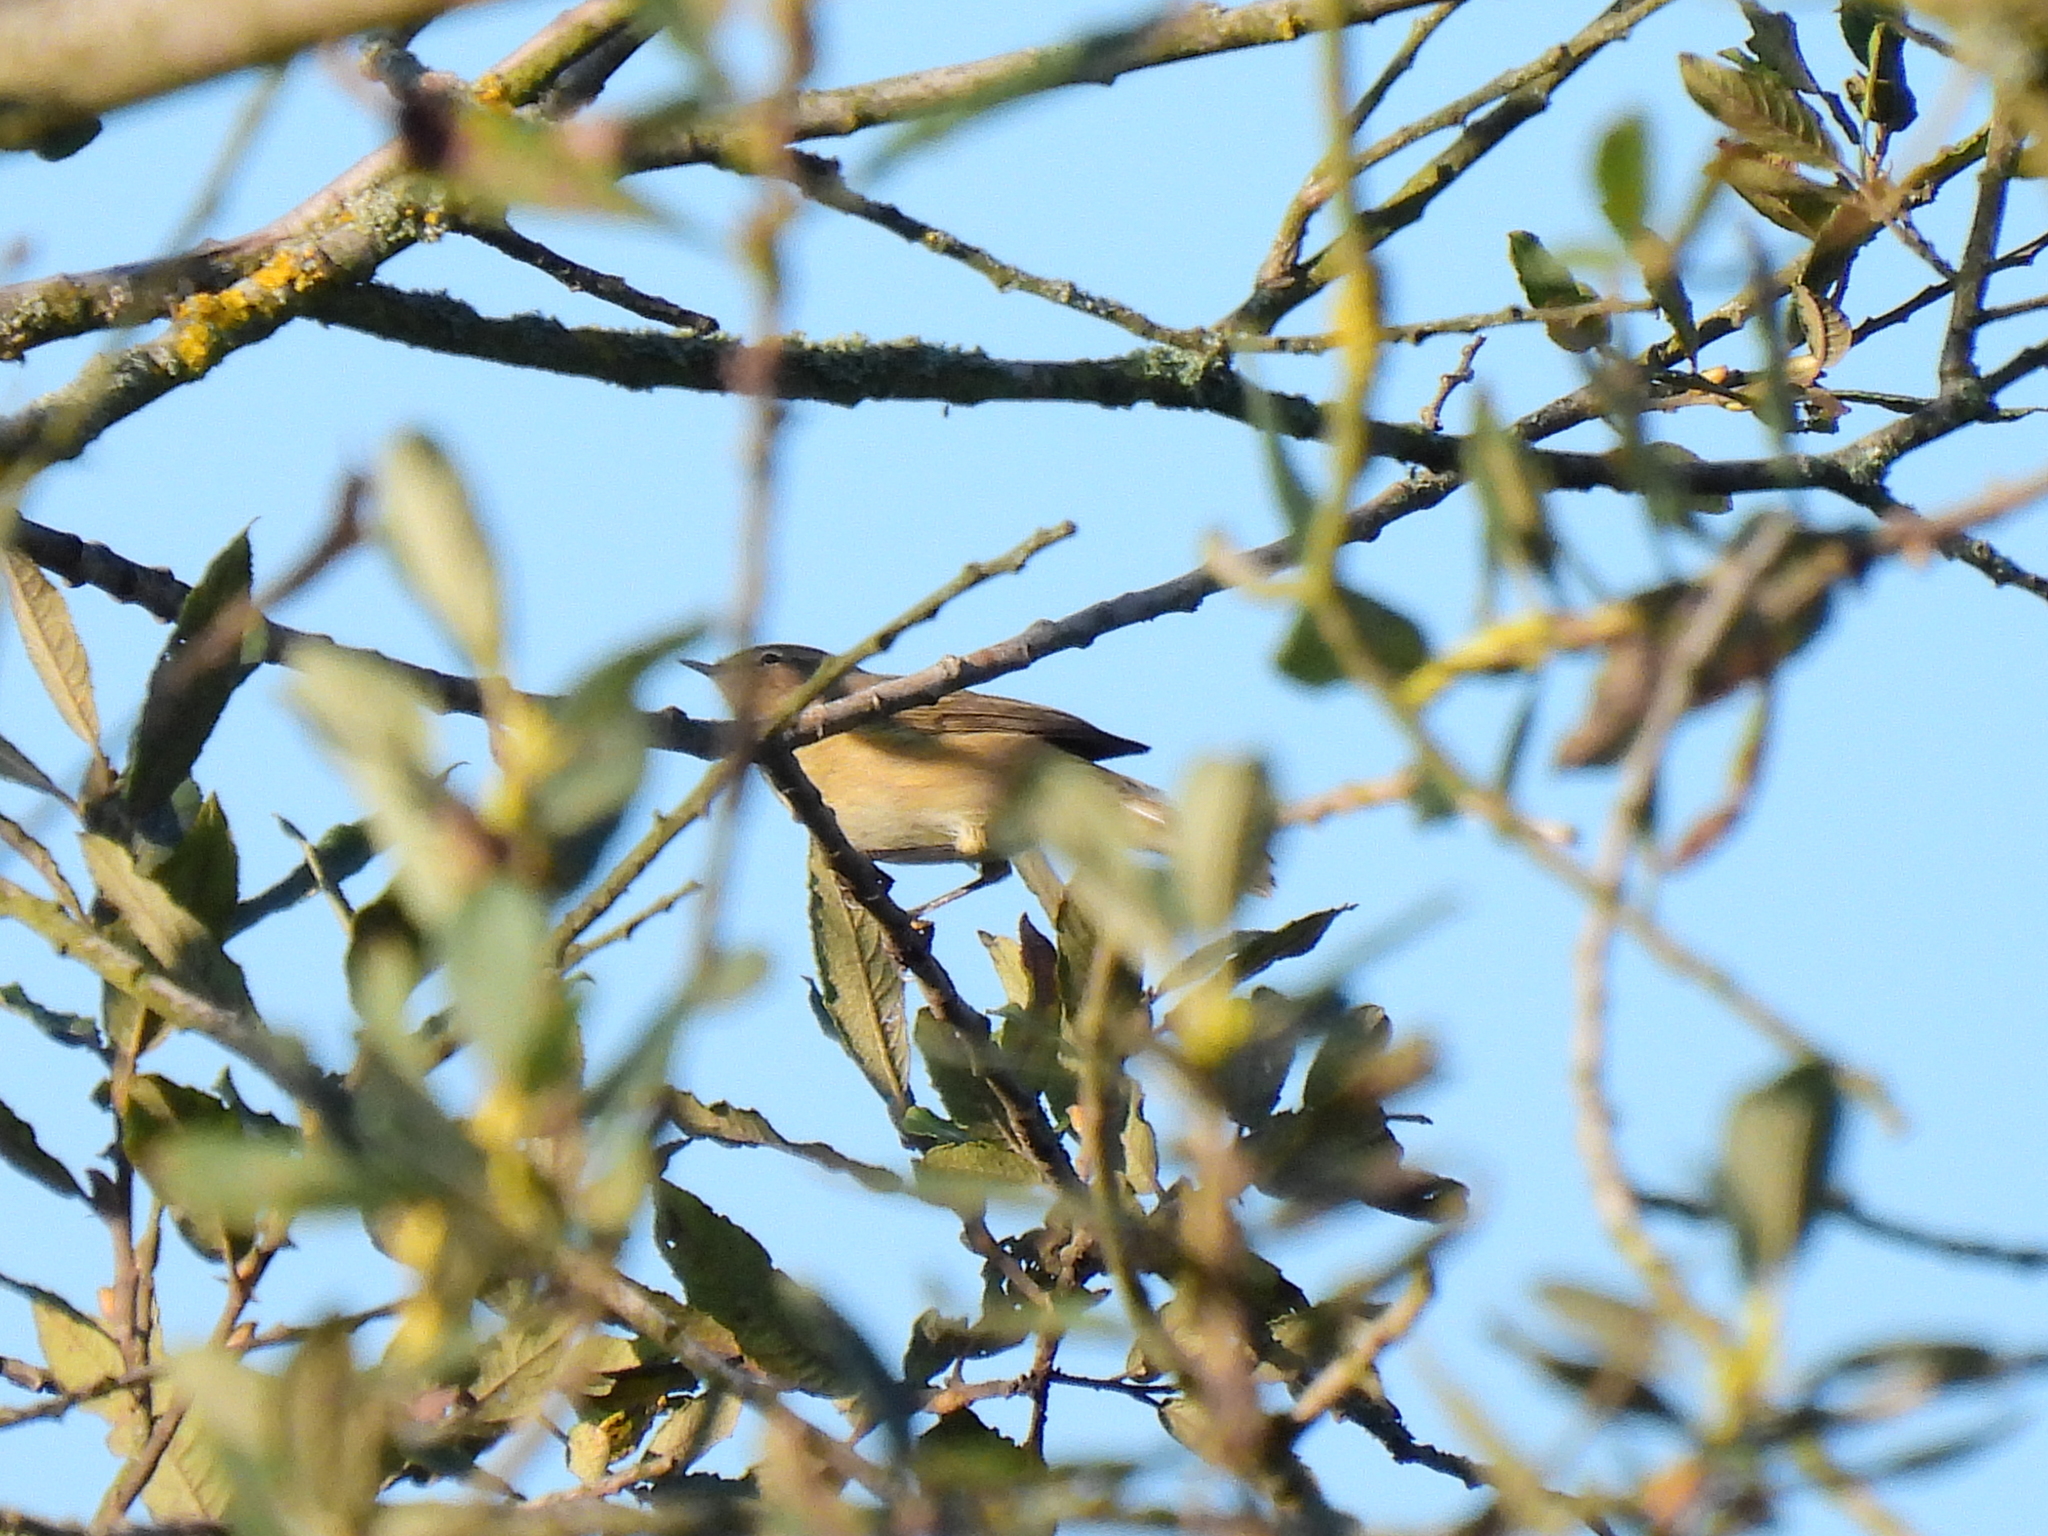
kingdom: Animalia
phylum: Chordata
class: Aves
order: Passeriformes
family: Phylloscopidae
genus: Phylloscopus
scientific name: Phylloscopus collybita
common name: Common chiffchaff
